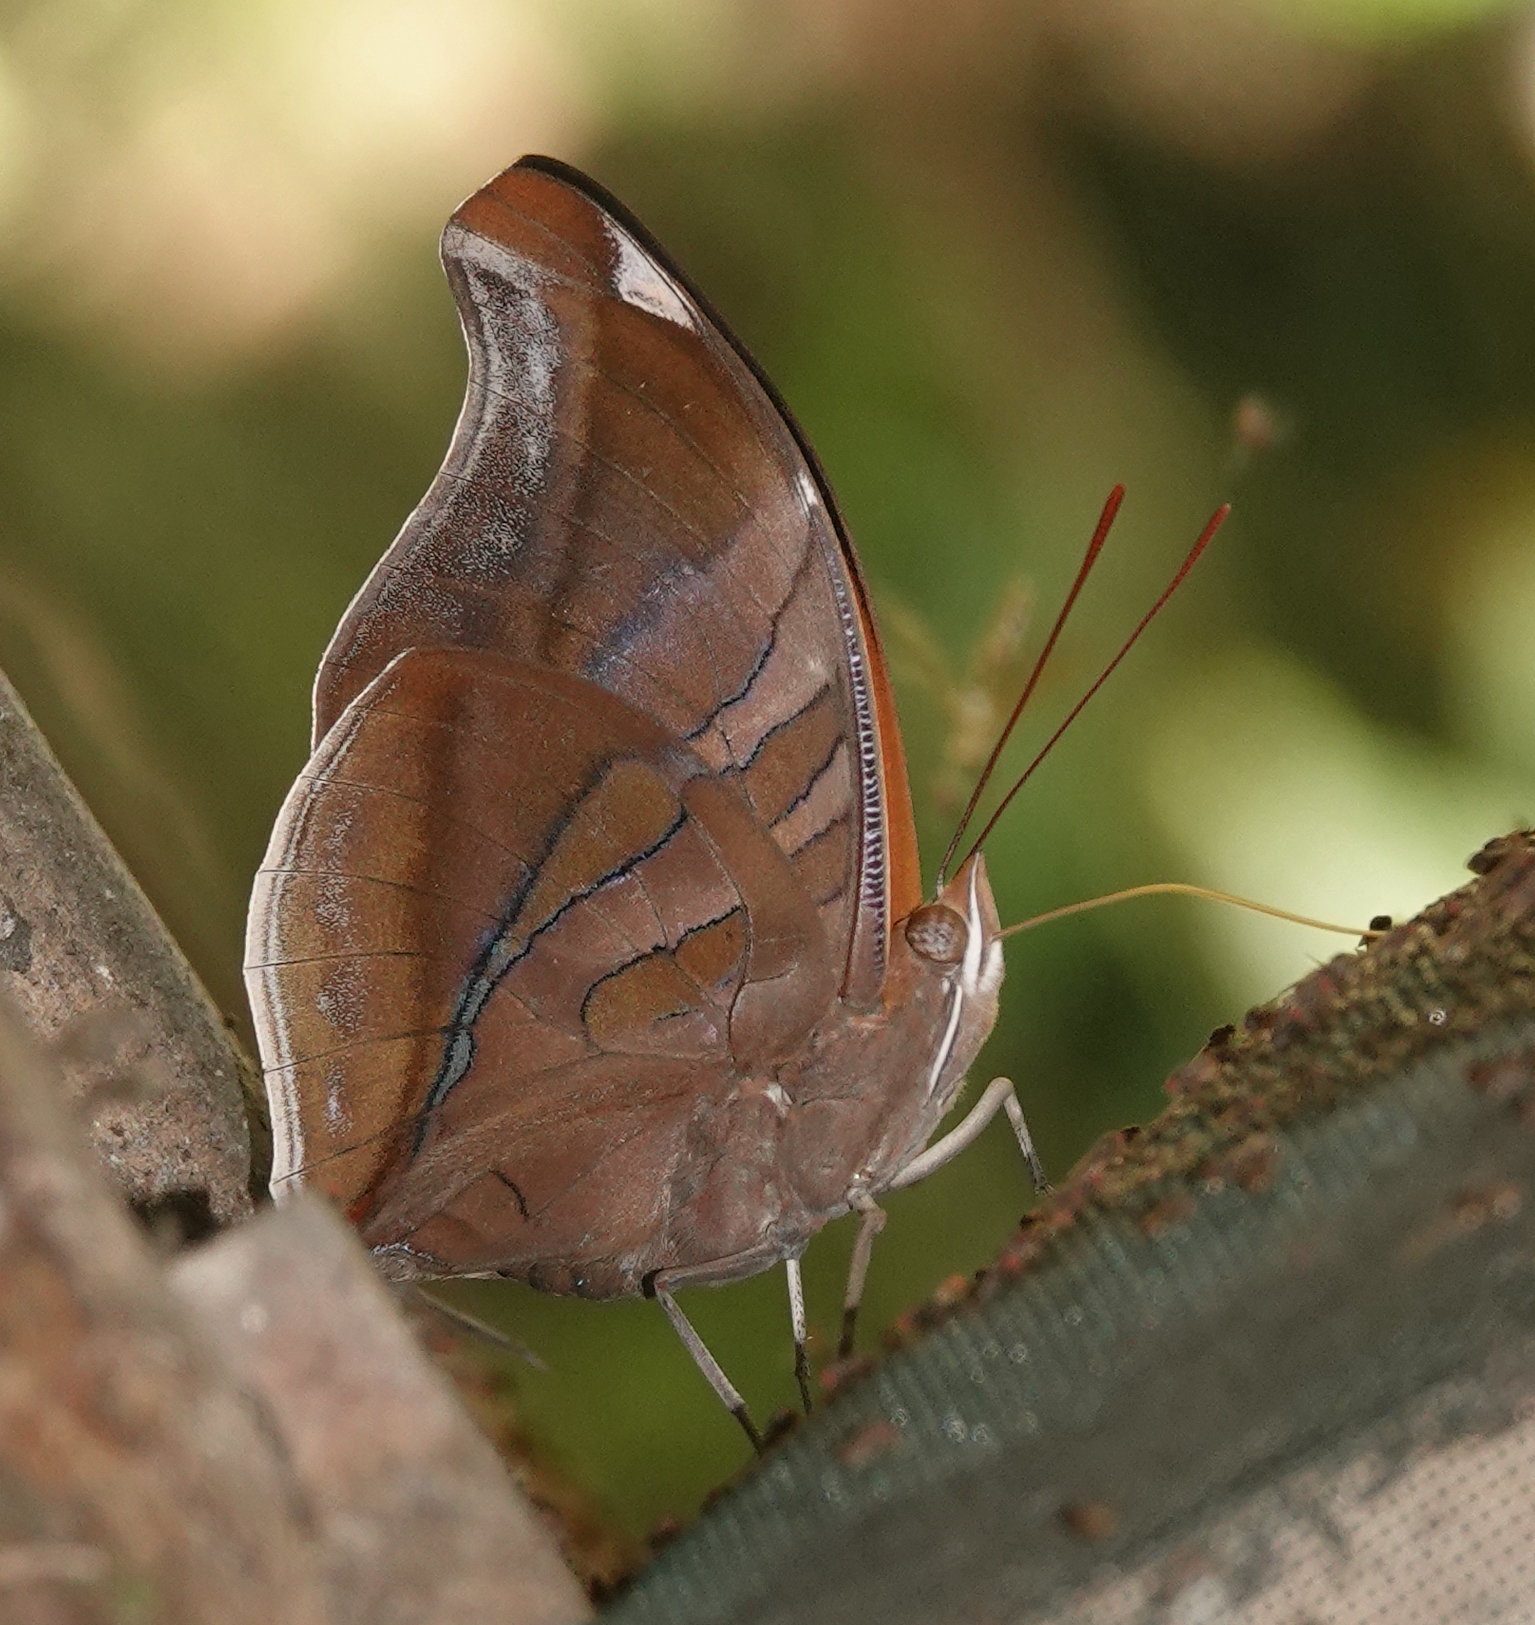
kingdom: Animalia
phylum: Arthropoda
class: Insecta
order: Lepidoptera
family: Nymphalidae
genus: Historis
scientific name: Historis odius
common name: Orion cecropian
